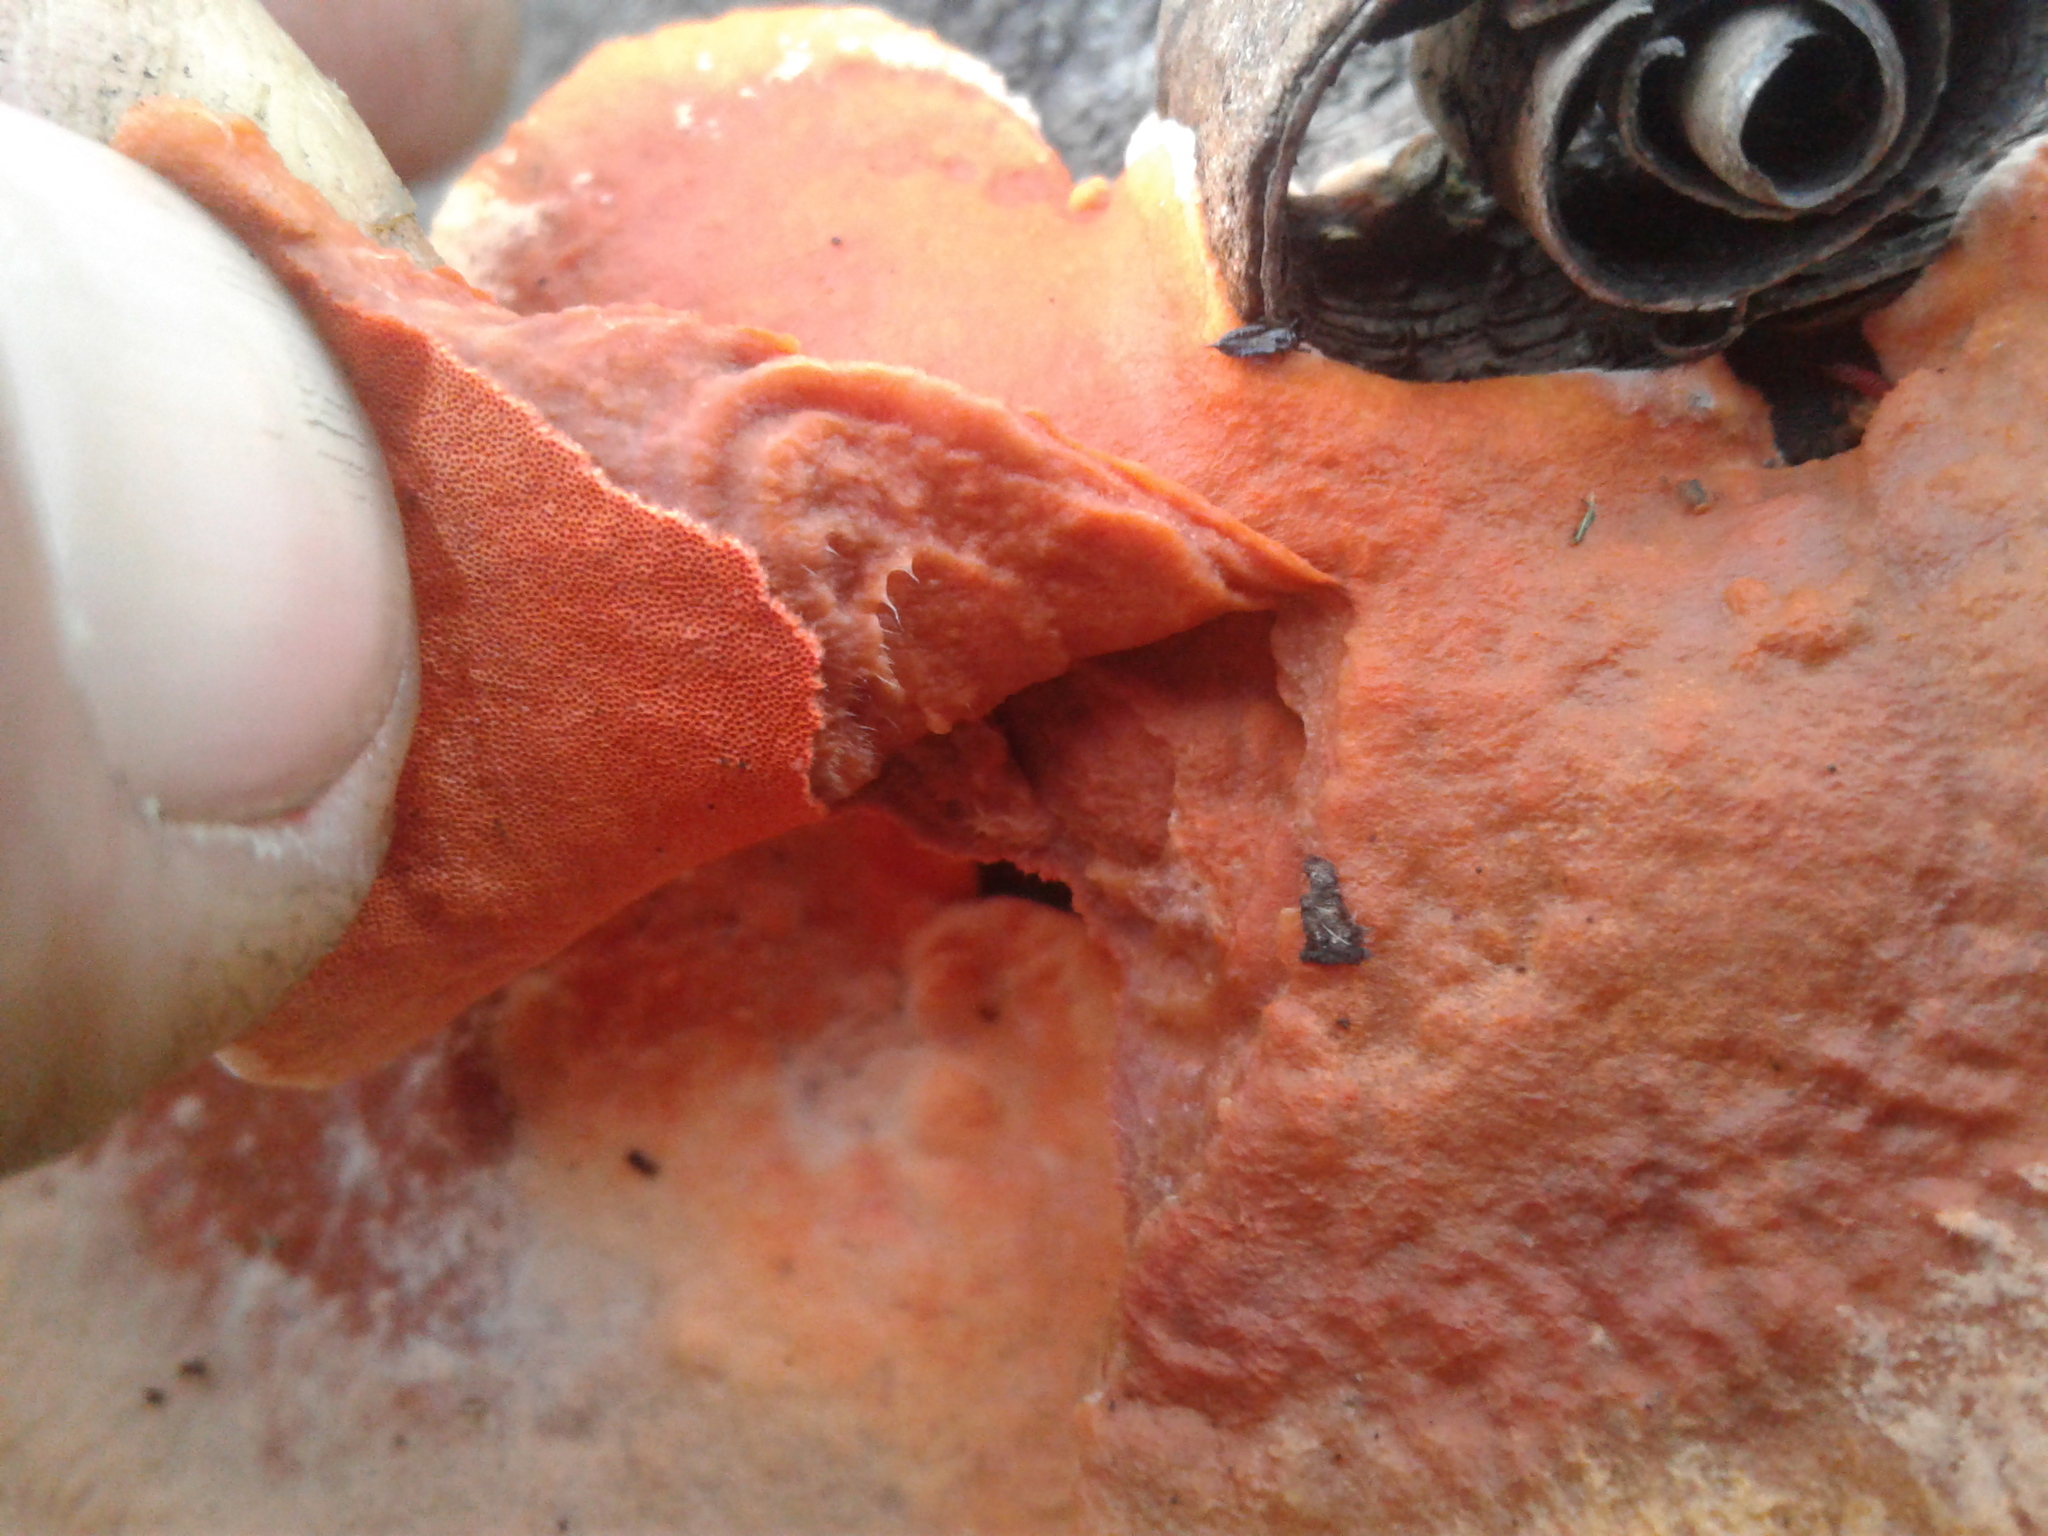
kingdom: Fungi
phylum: Basidiomycota
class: Agaricomycetes
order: Polyporales
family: Polyporaceae
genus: Trametes
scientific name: Trametes coccinea
